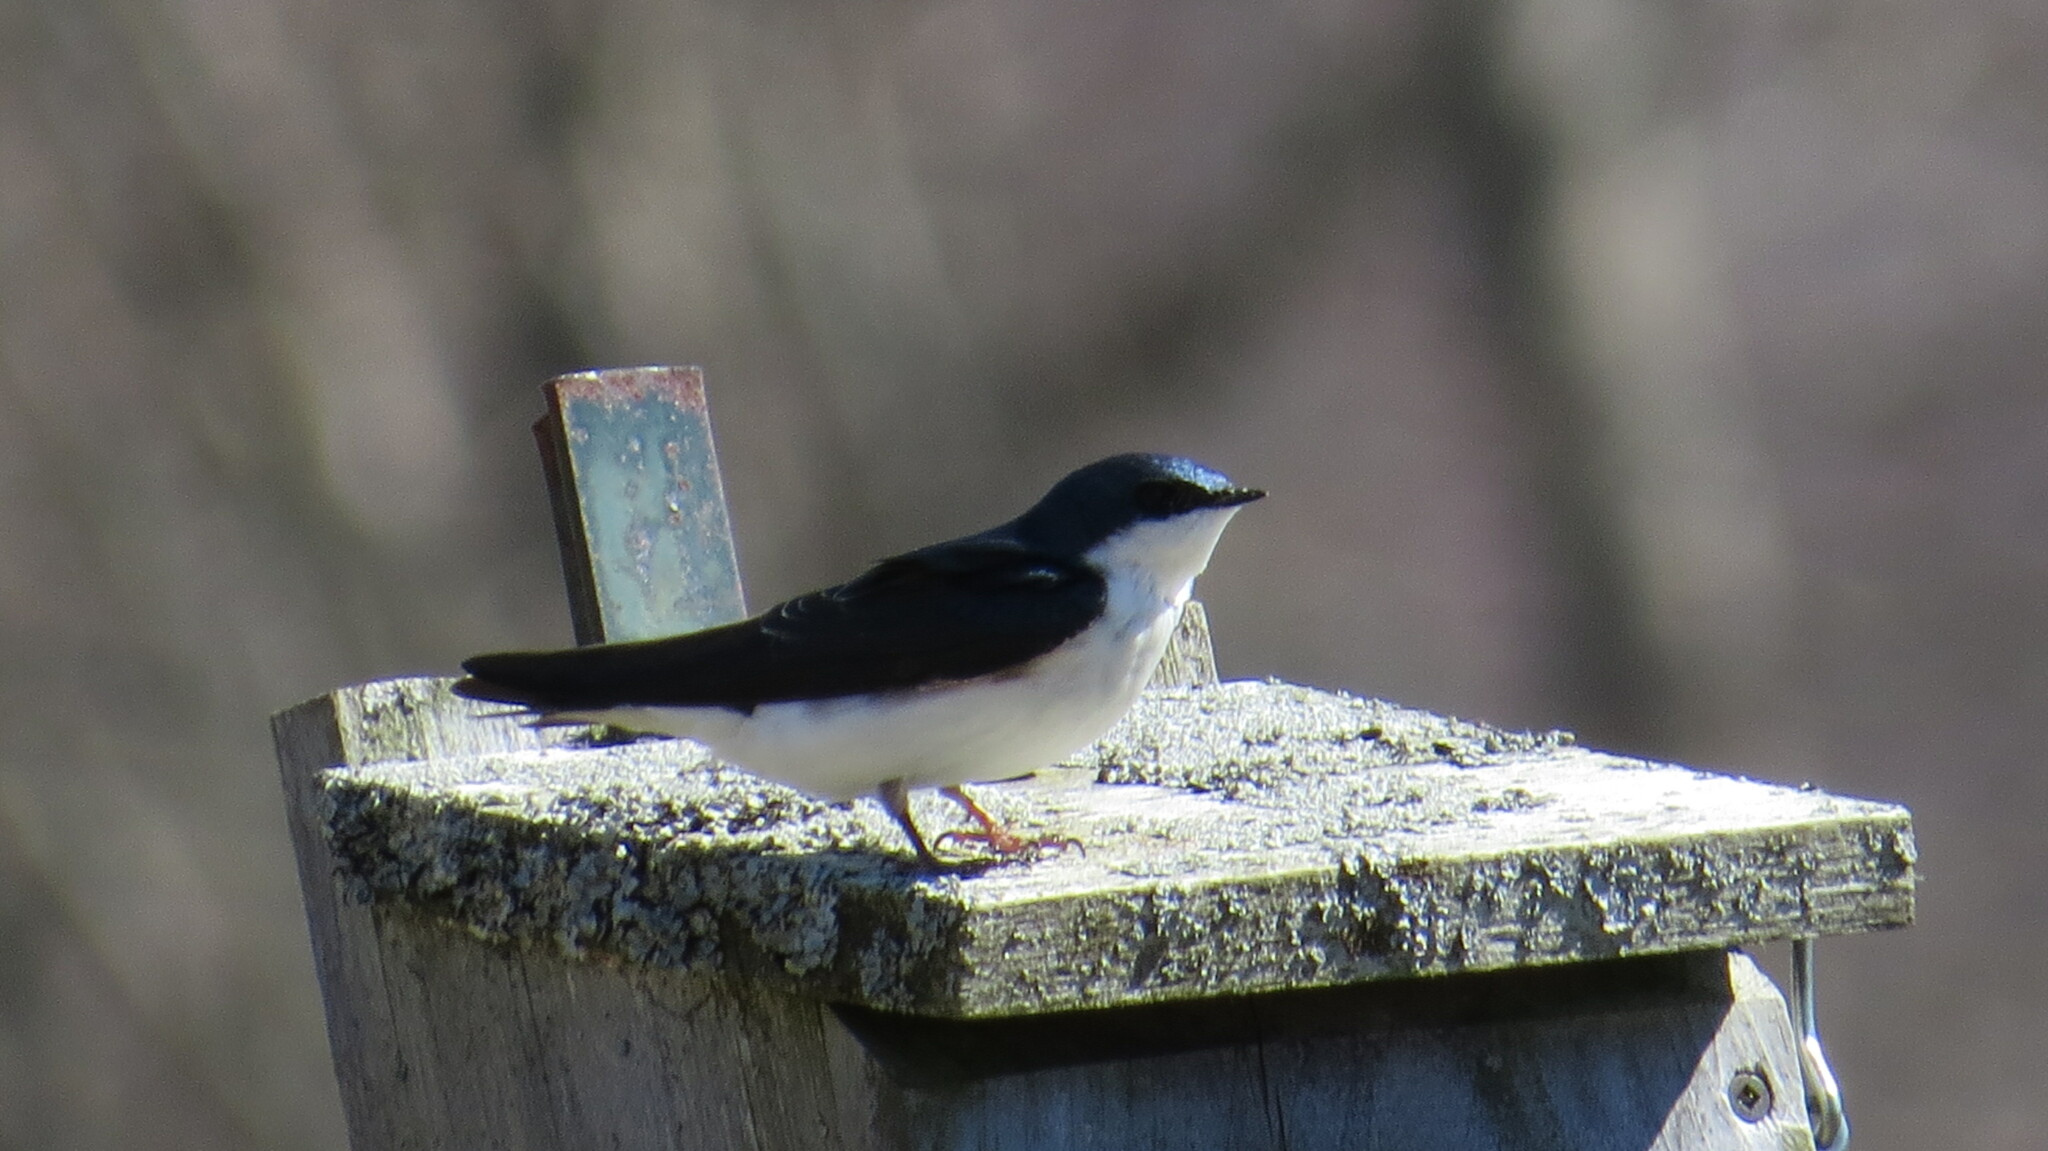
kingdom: Animalia
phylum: Chordata
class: Aves
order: Passeriformes
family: Hirundinidae
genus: Tachycineta
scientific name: Tachycineta bicolor
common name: Tree swallow
